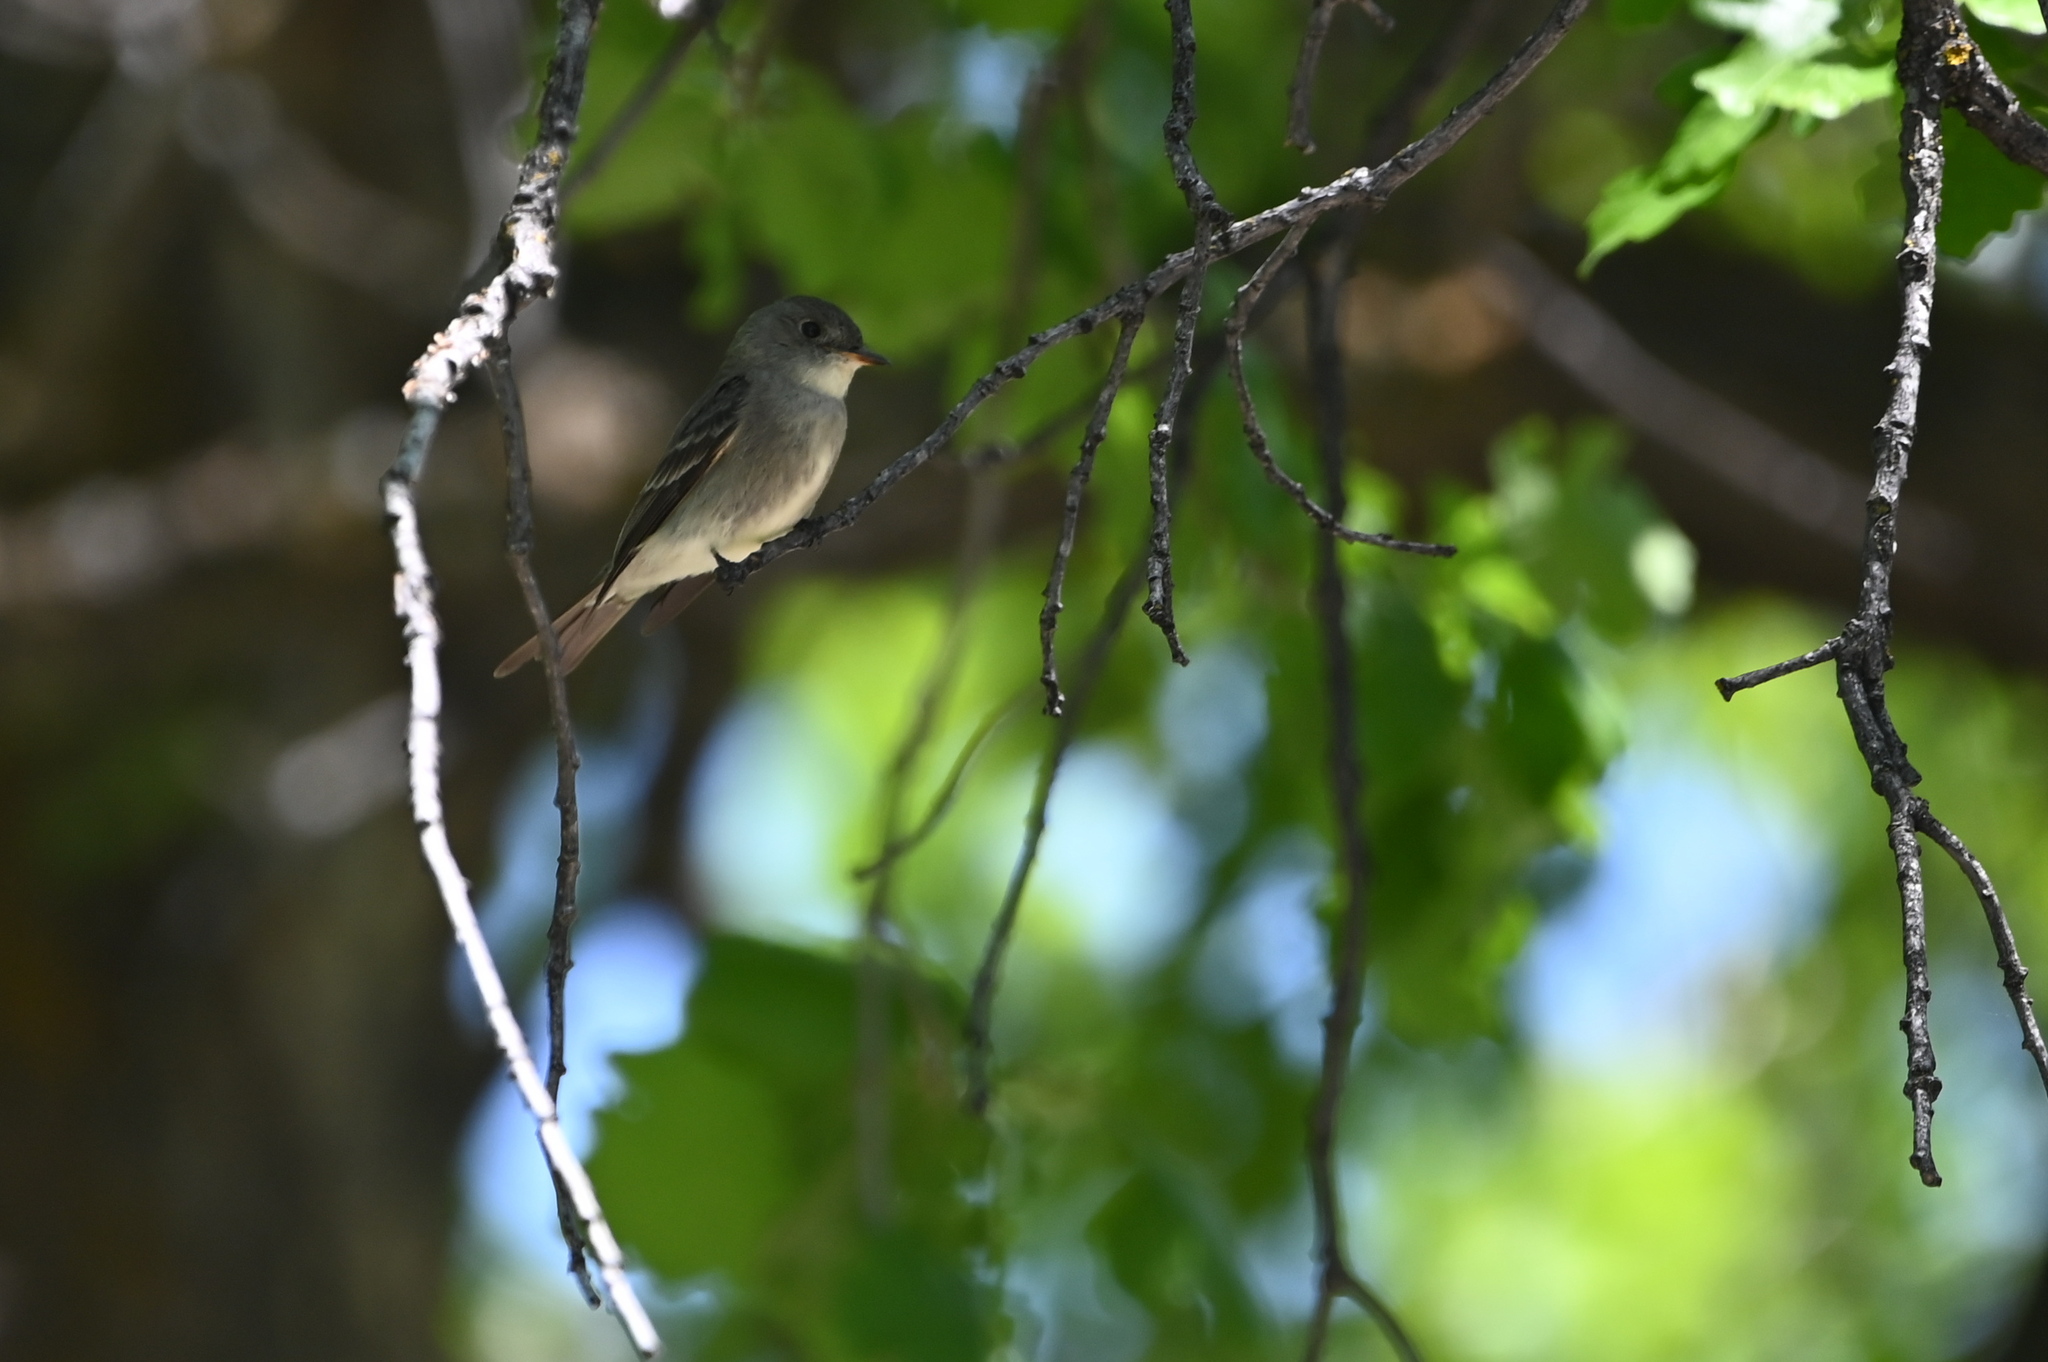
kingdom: Animalia
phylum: Chordata
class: Aves
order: Passeriformes
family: Tyrannidae
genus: Contopus
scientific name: Contopus sordidulus
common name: Western wood-pewee
